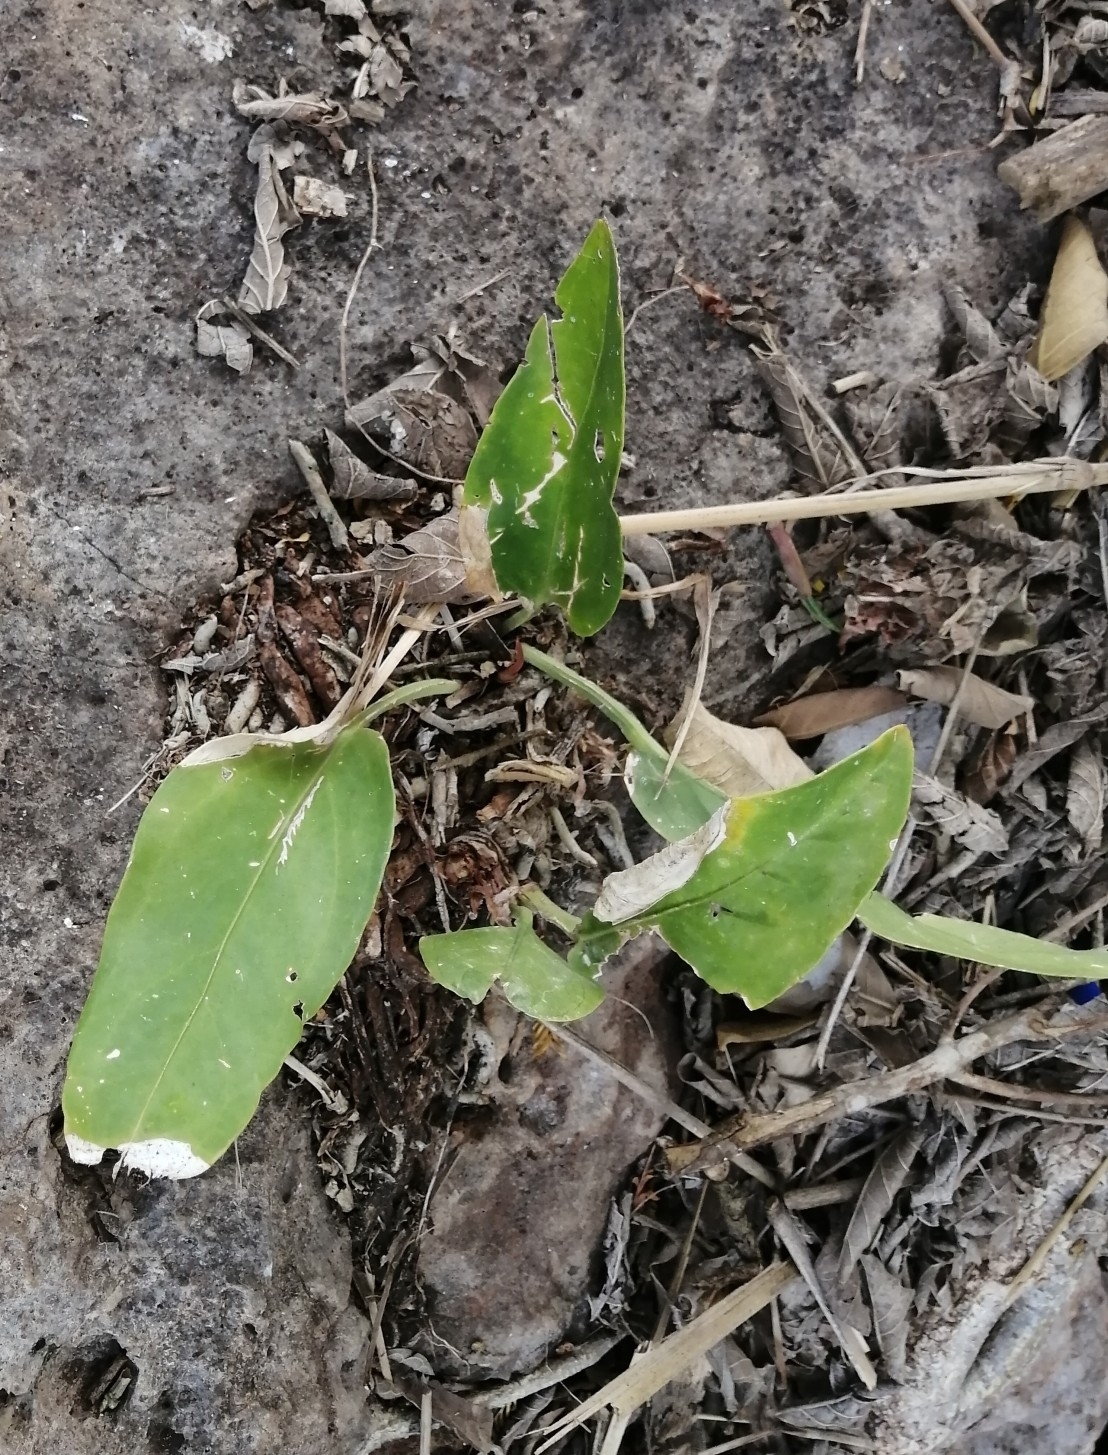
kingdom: Plantae
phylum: Tracheophyta
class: Liliopsida
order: Alismatales
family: Araceae
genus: Anthurium
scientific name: Anthurium schlechtendalii
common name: Laceleaf
